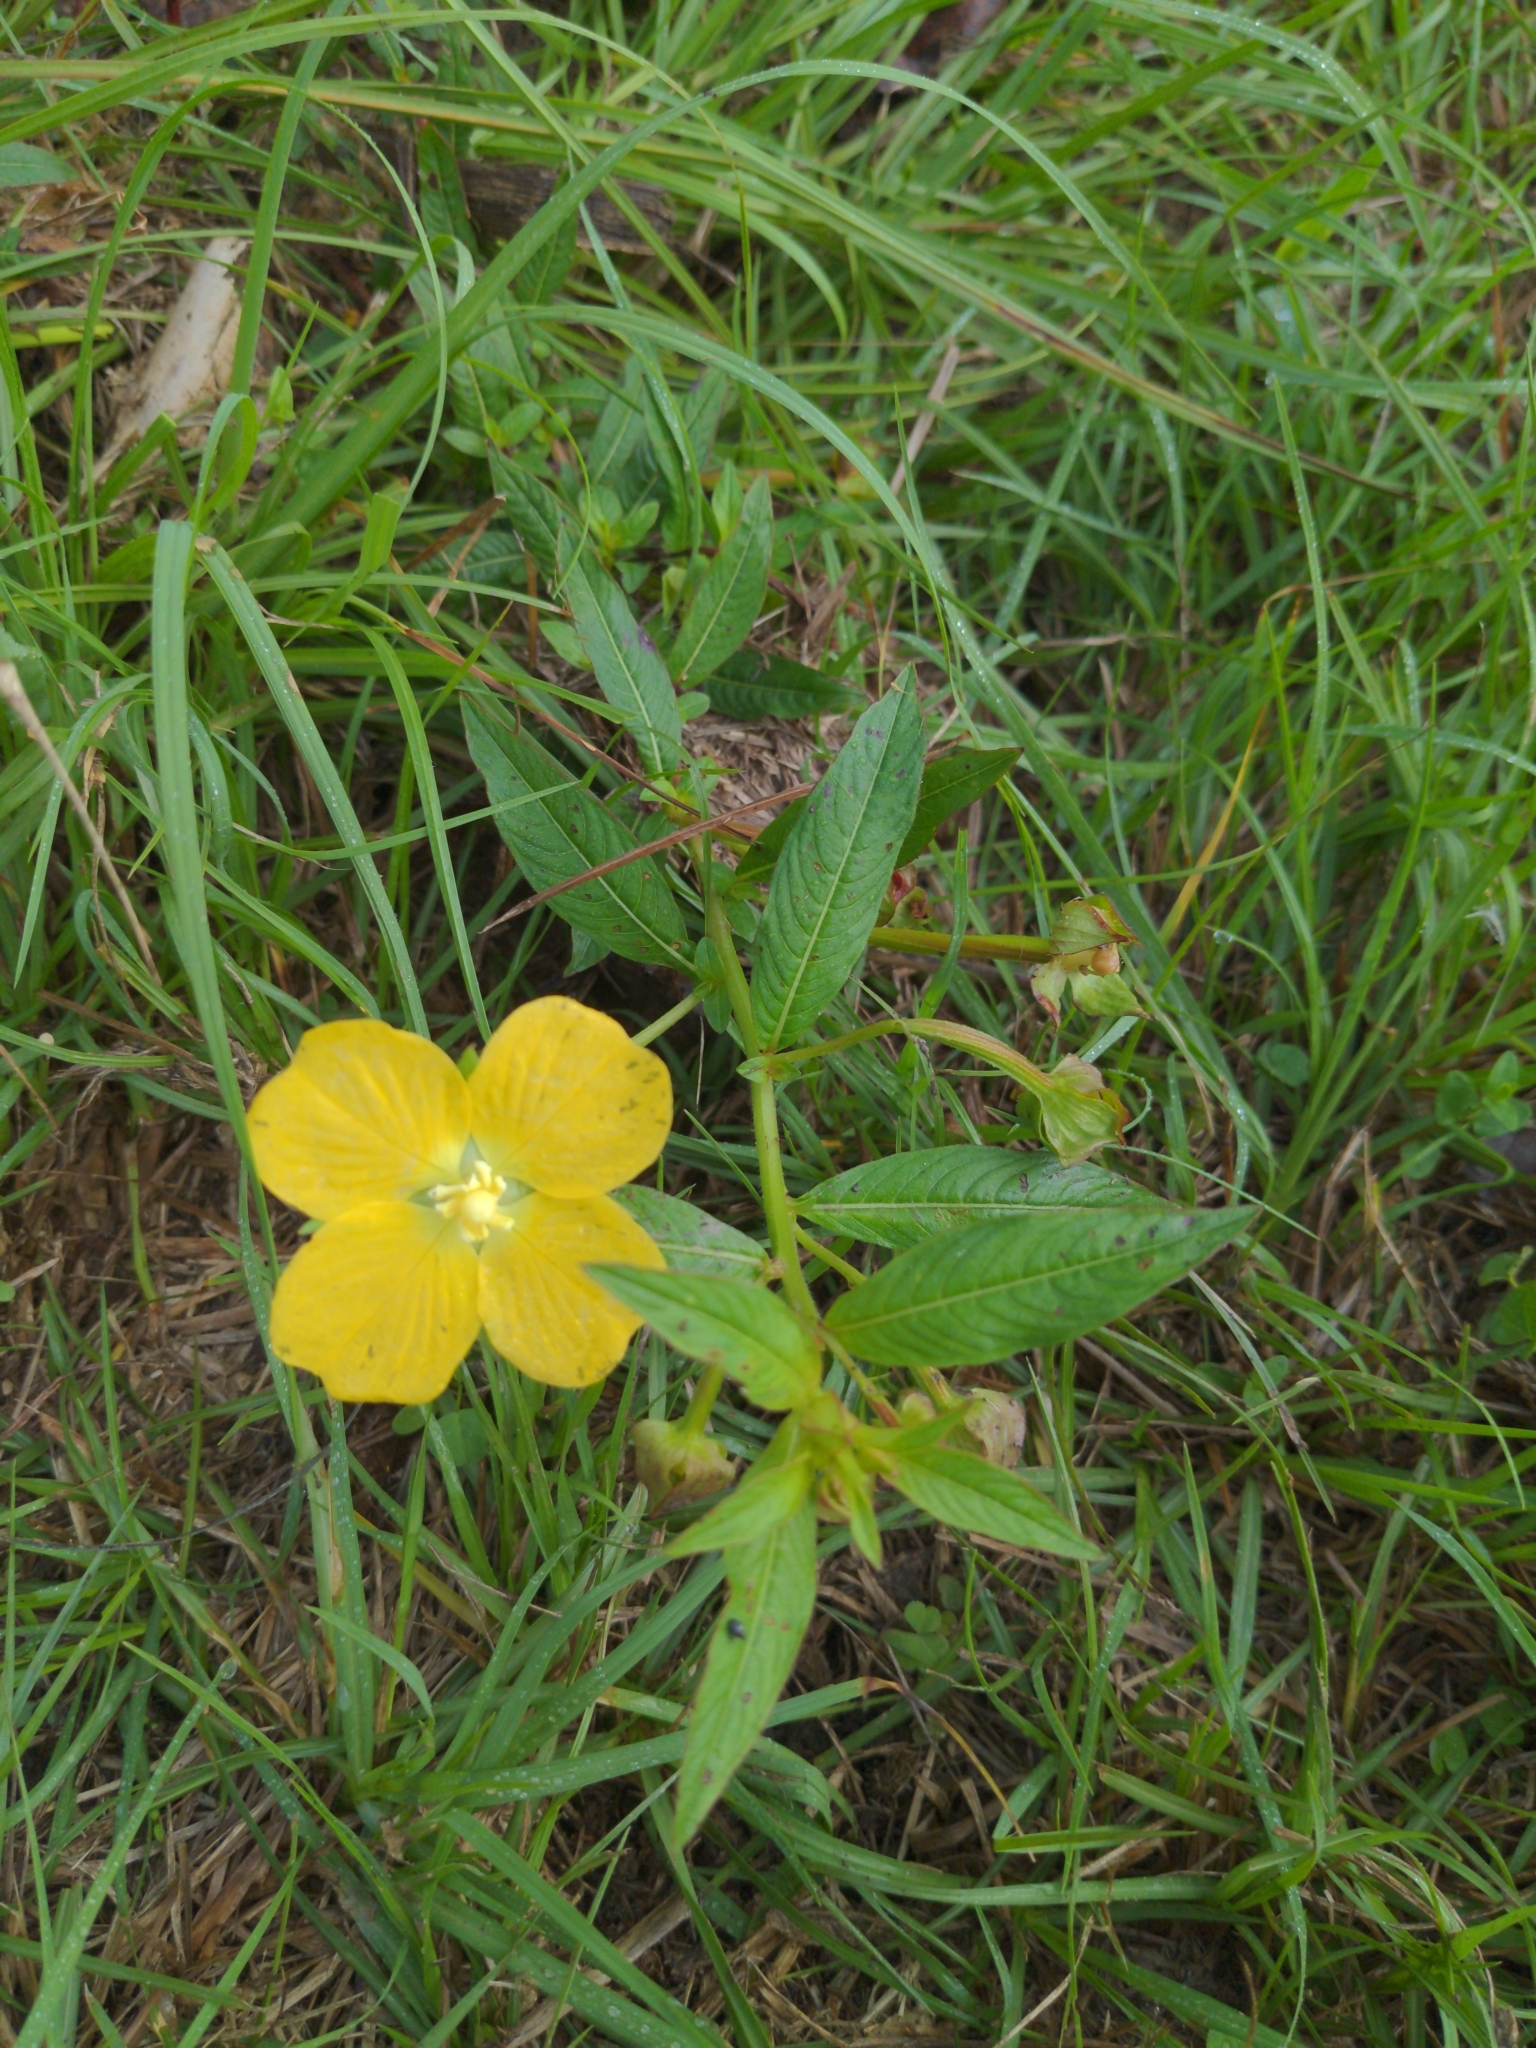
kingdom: Plantae
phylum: Tracheophyta
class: Magnoliopsida
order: Myrtales
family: Onagraceae
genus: Ludwigia
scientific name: Ludwigia octovalvis
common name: Water-primrose
